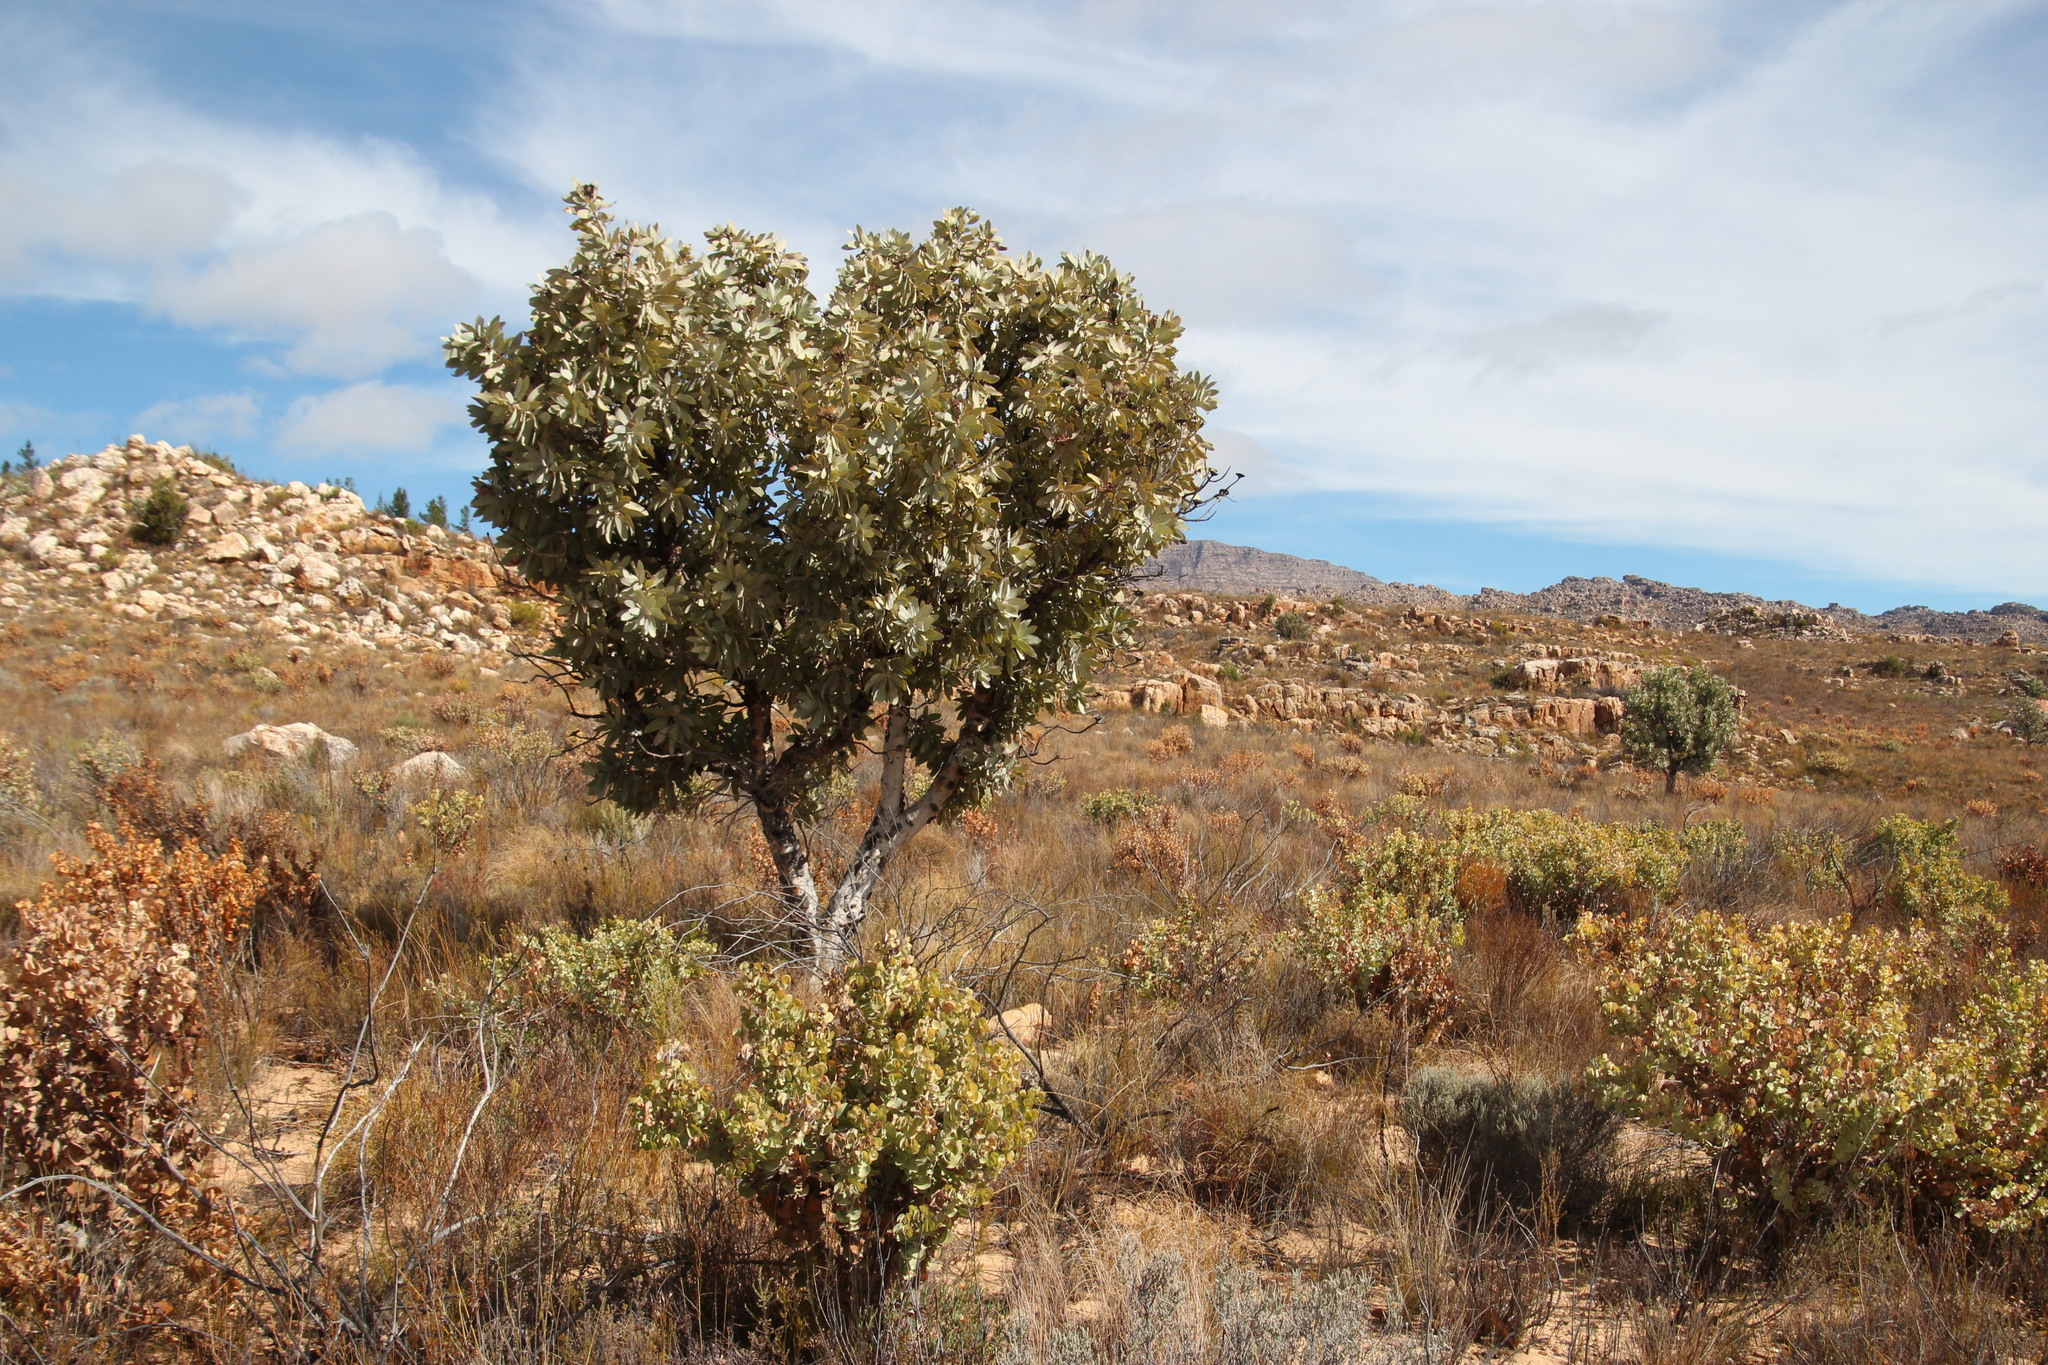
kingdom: Plantae
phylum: Tracheophyta
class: Magnoliopsida
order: Proteales
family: Proteaceae
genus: Protea
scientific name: Protea nitida
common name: Tree protea
